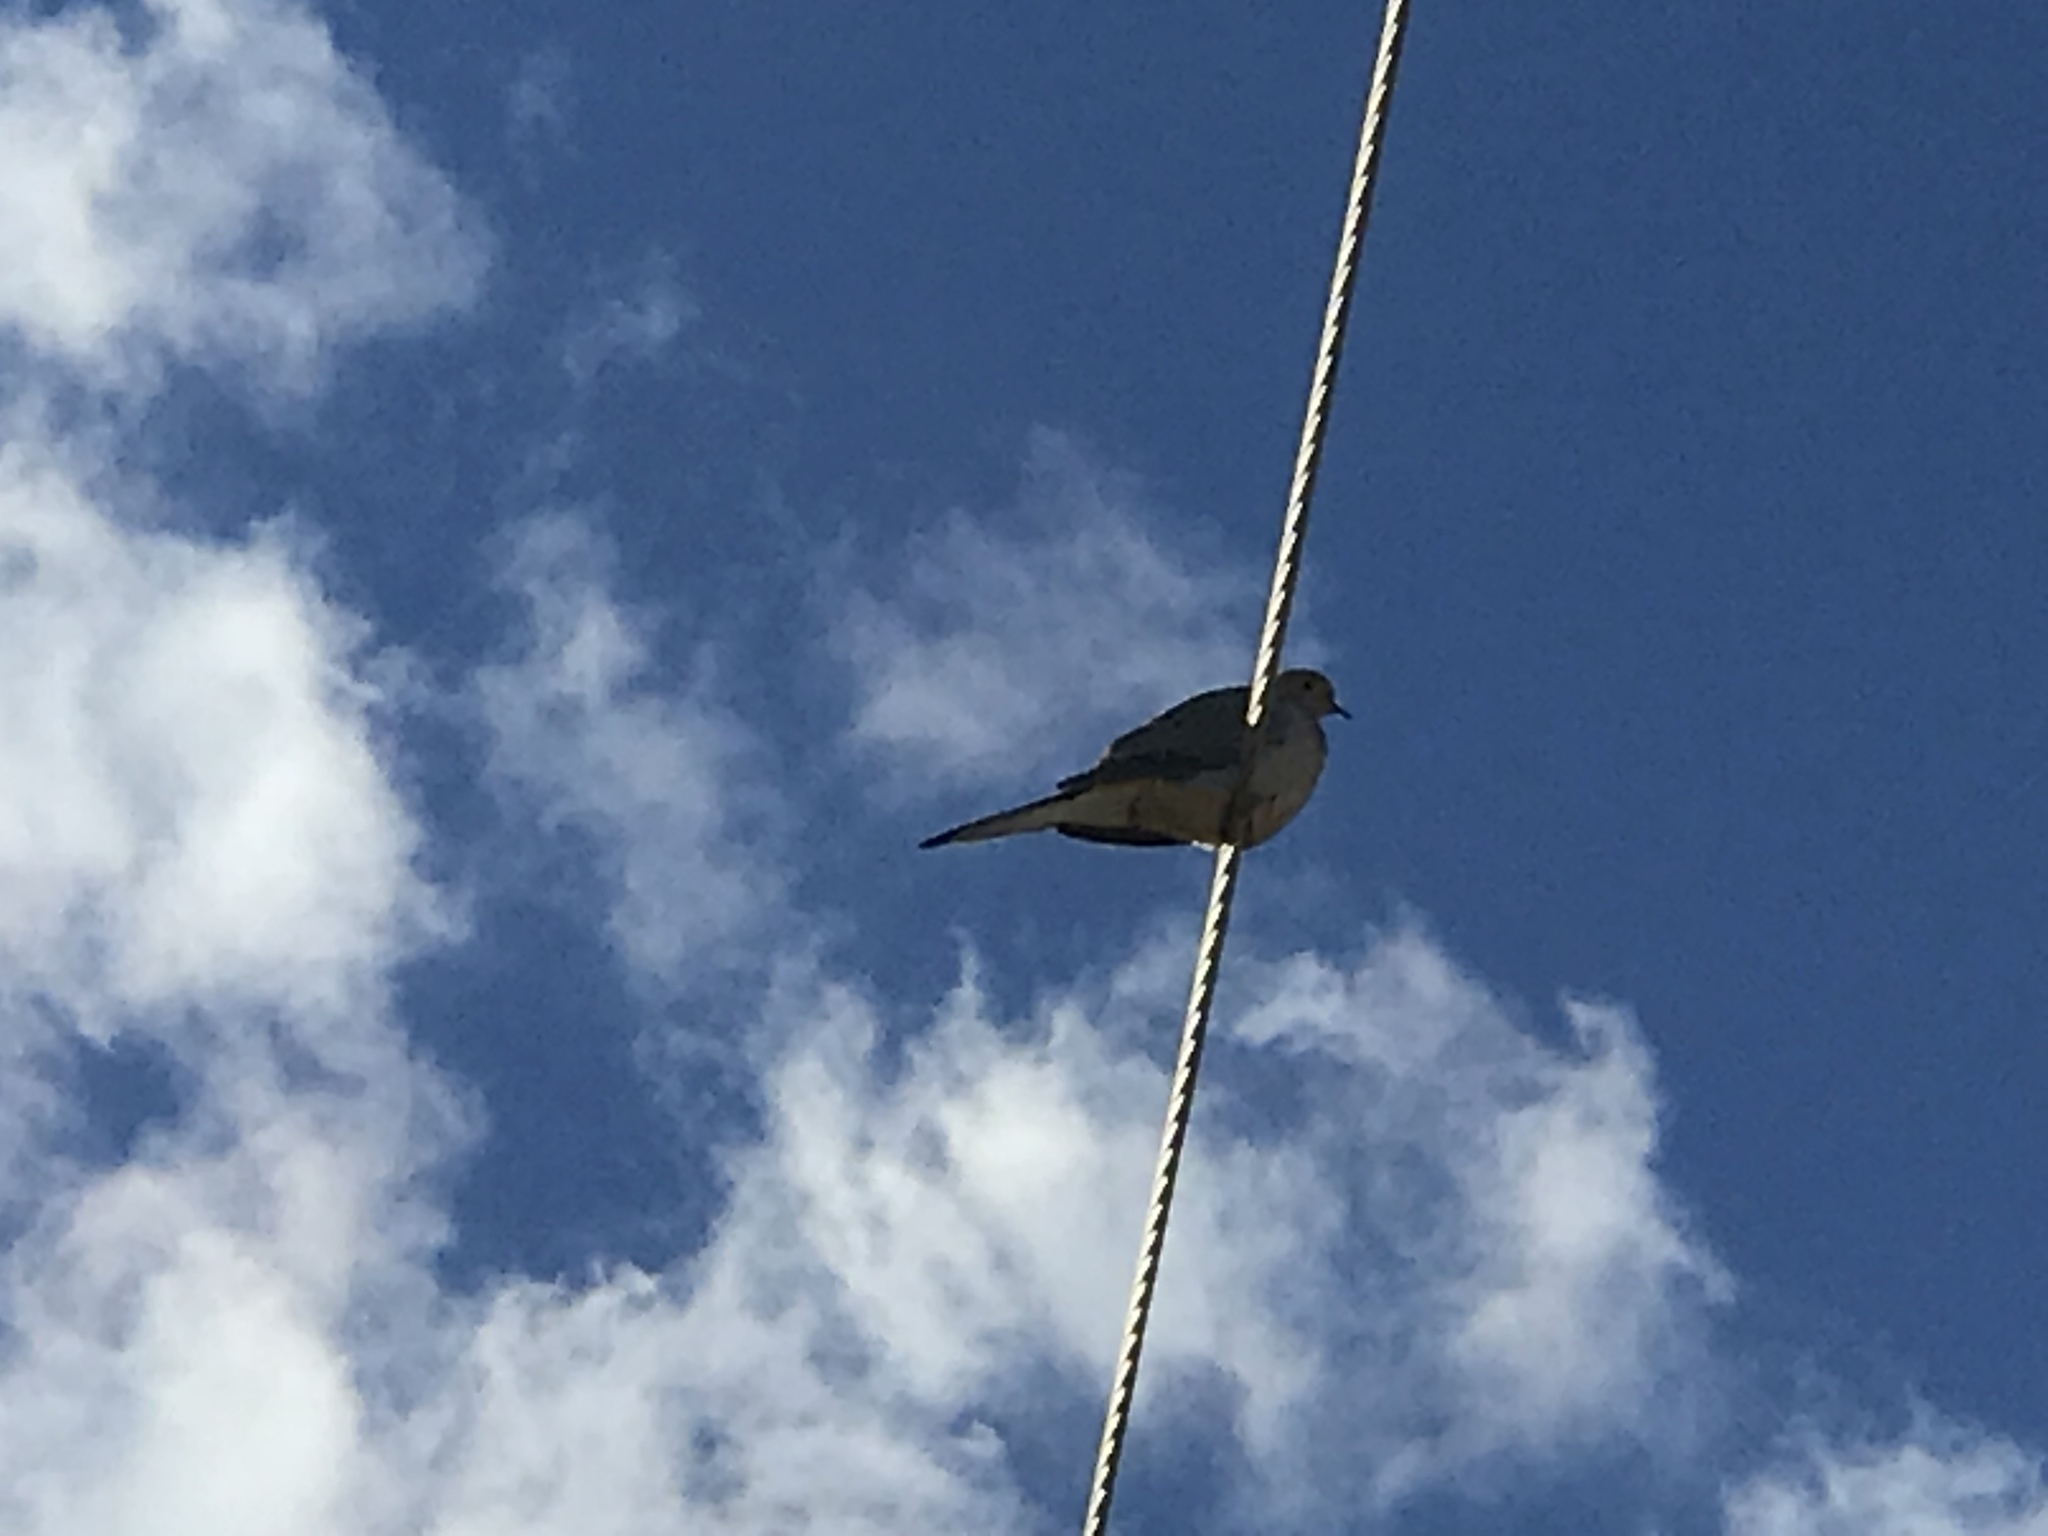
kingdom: Animalia
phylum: Chordata
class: Aves
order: Columbiformes
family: Columbidae
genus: Zenaida
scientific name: Zenaida macroura
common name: Mourning dove
